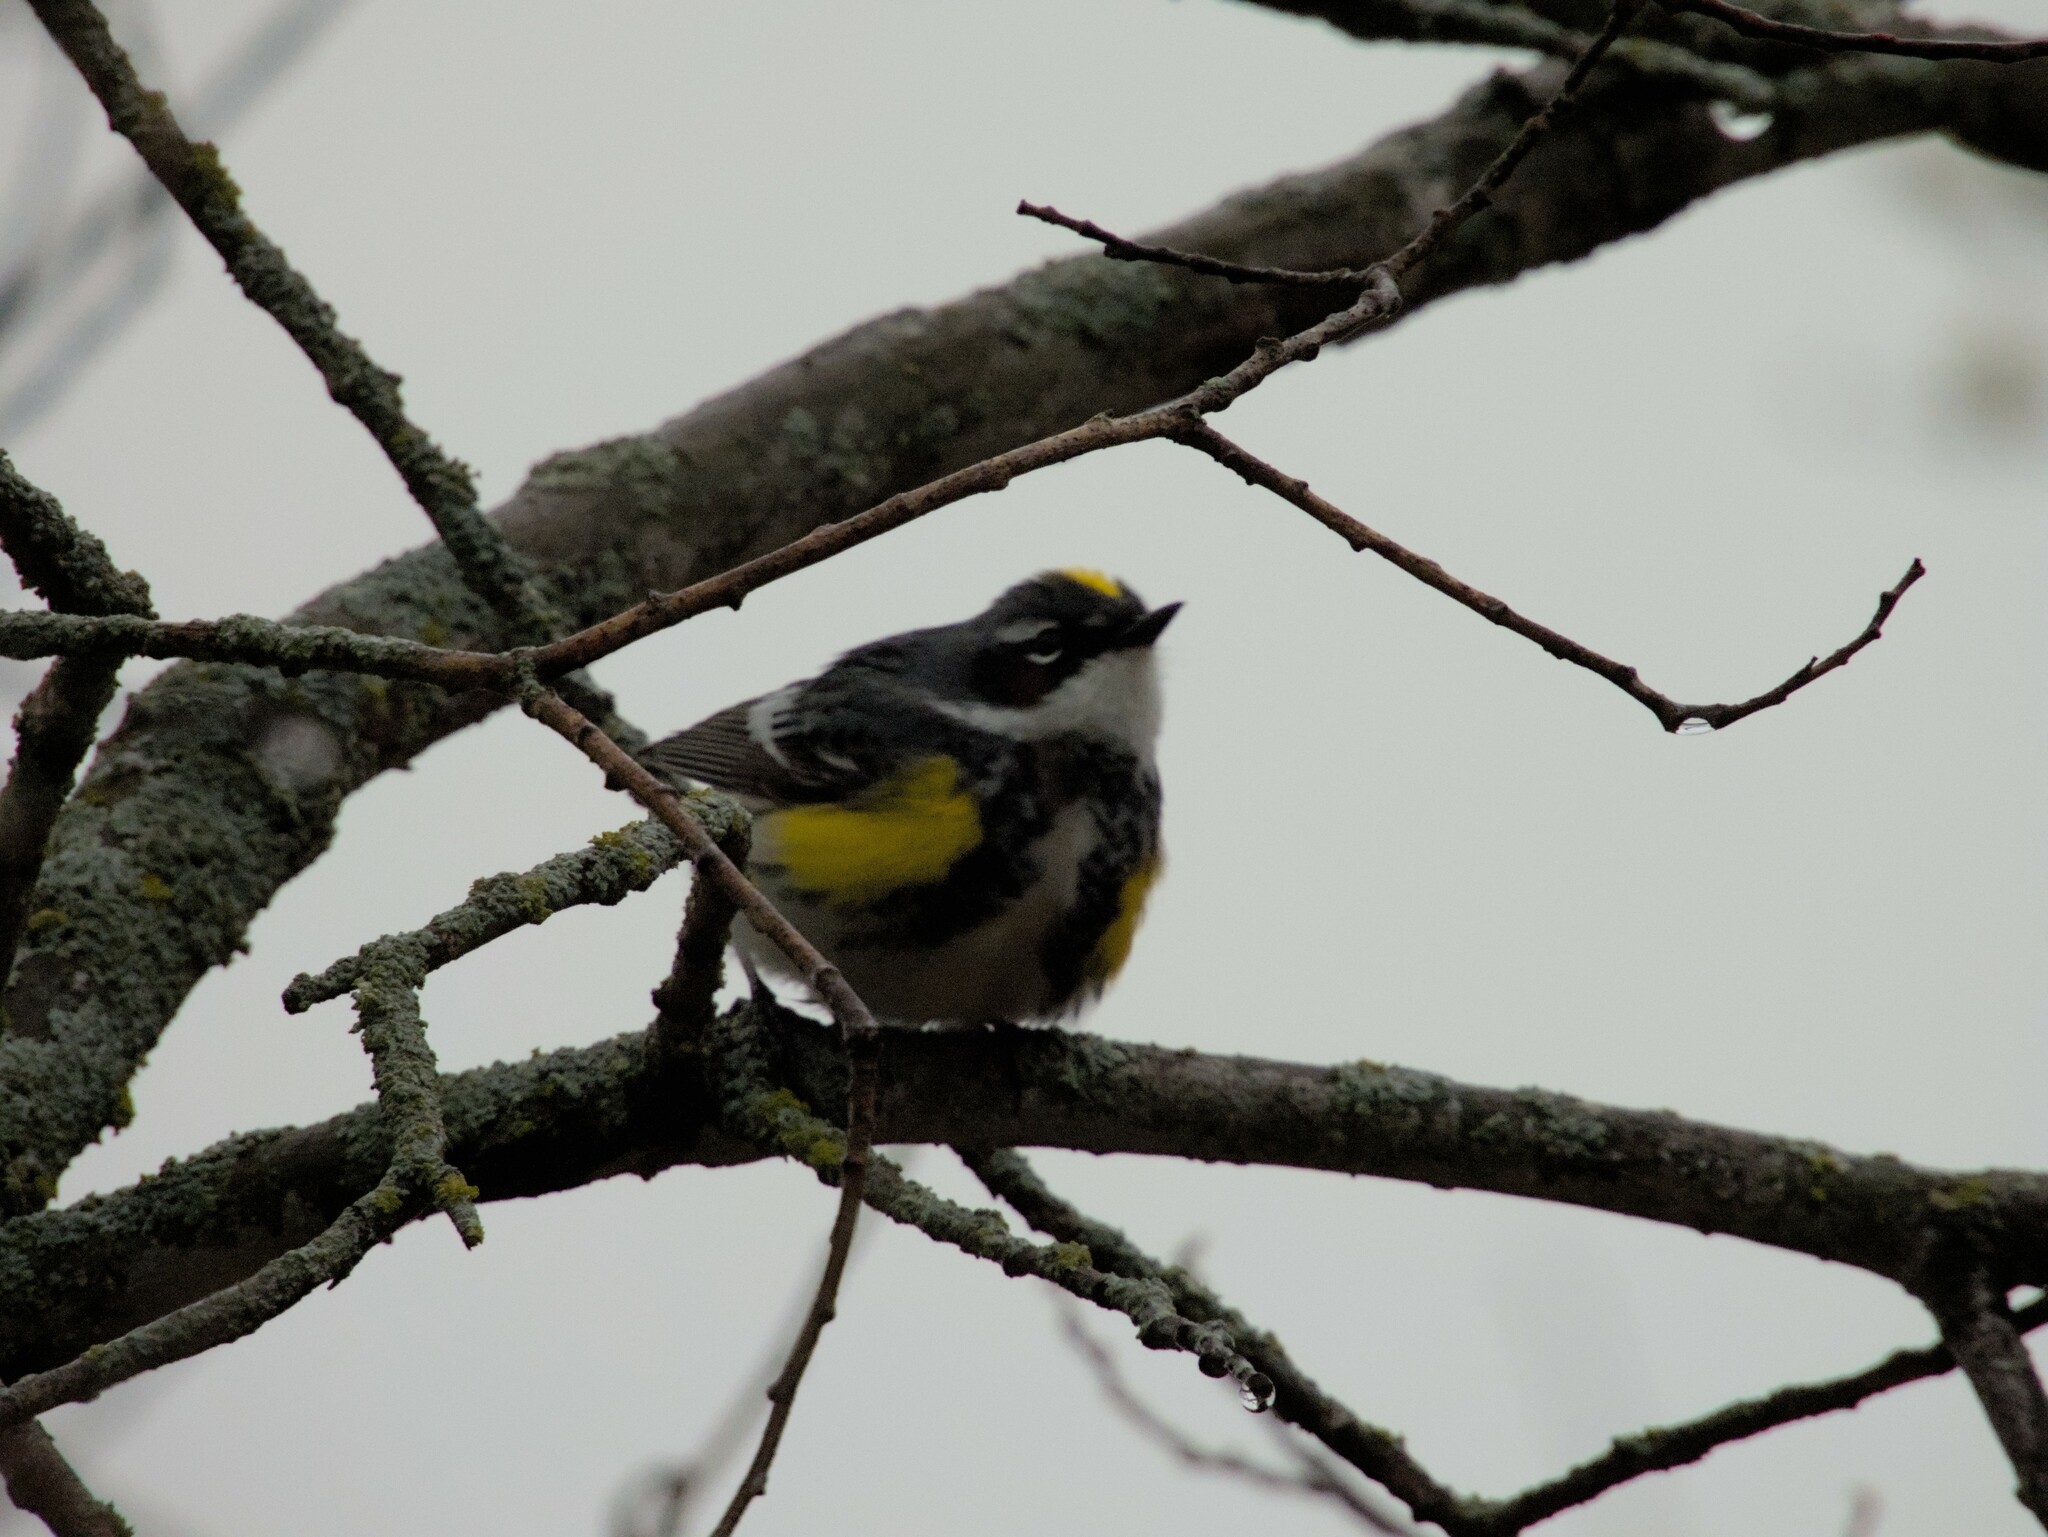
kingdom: Animalia
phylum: Chordata
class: Aves
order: Passeriformes
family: Parulidae
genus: Setophaga
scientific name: Setophaga coronata
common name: Myrtle warbler
